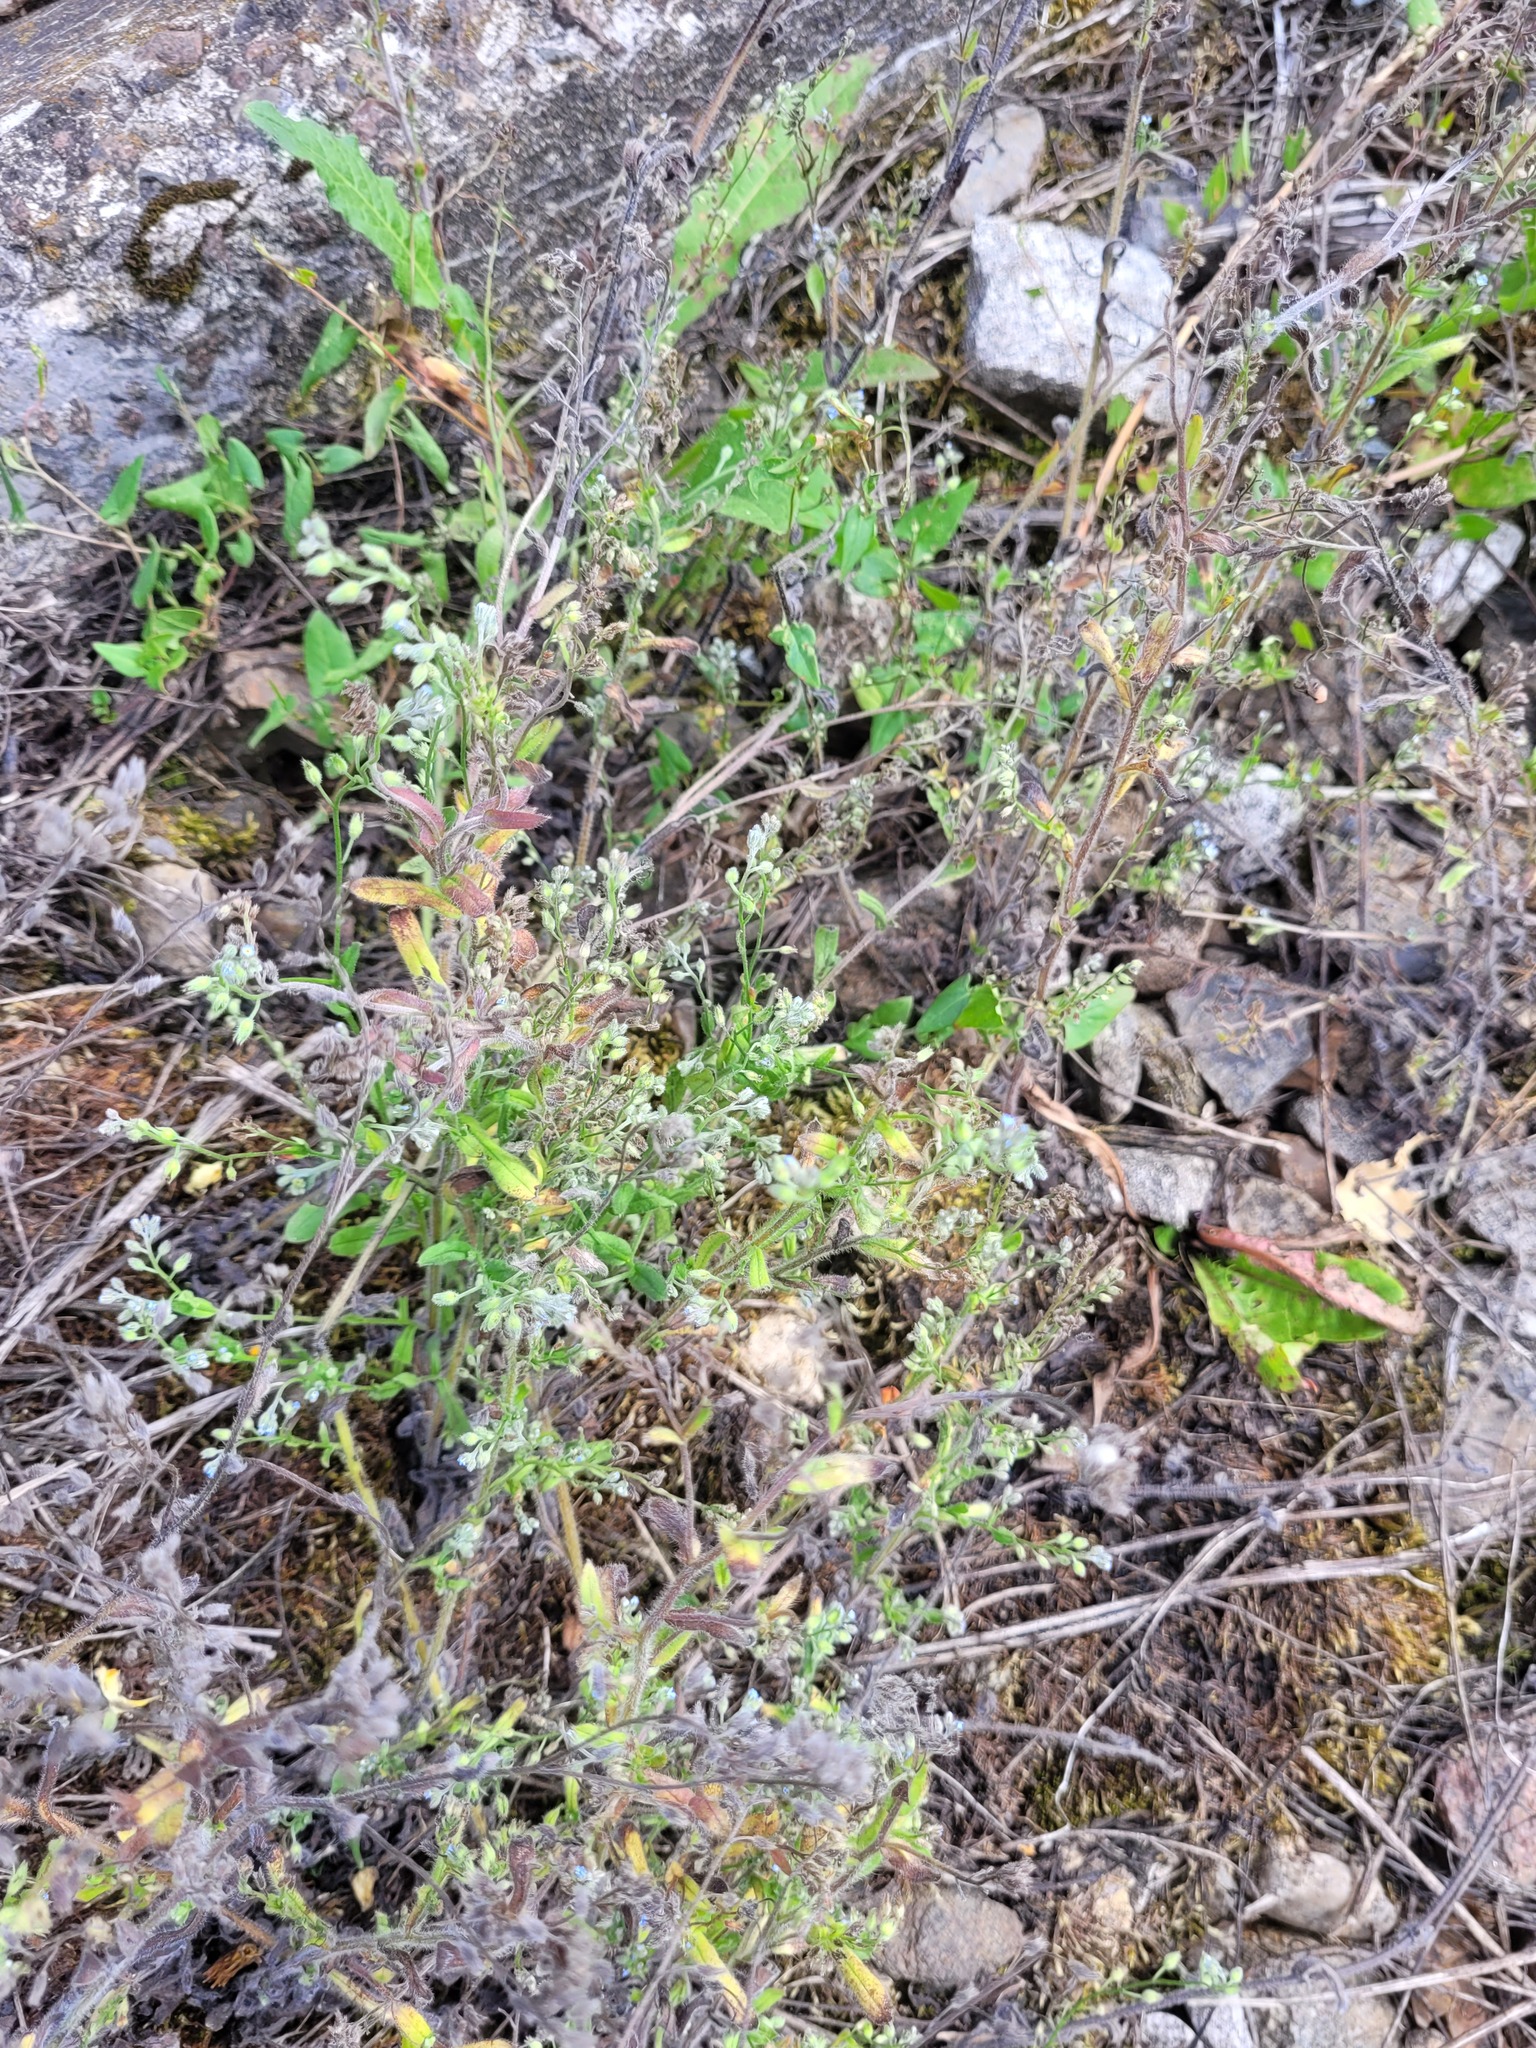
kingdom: Plantae
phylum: Tracheophyta
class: Magnoliopsida
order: Boraginales
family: Boraginaceae
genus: Myosotis
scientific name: Myosotis arvensis
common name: Field forget-me-not
